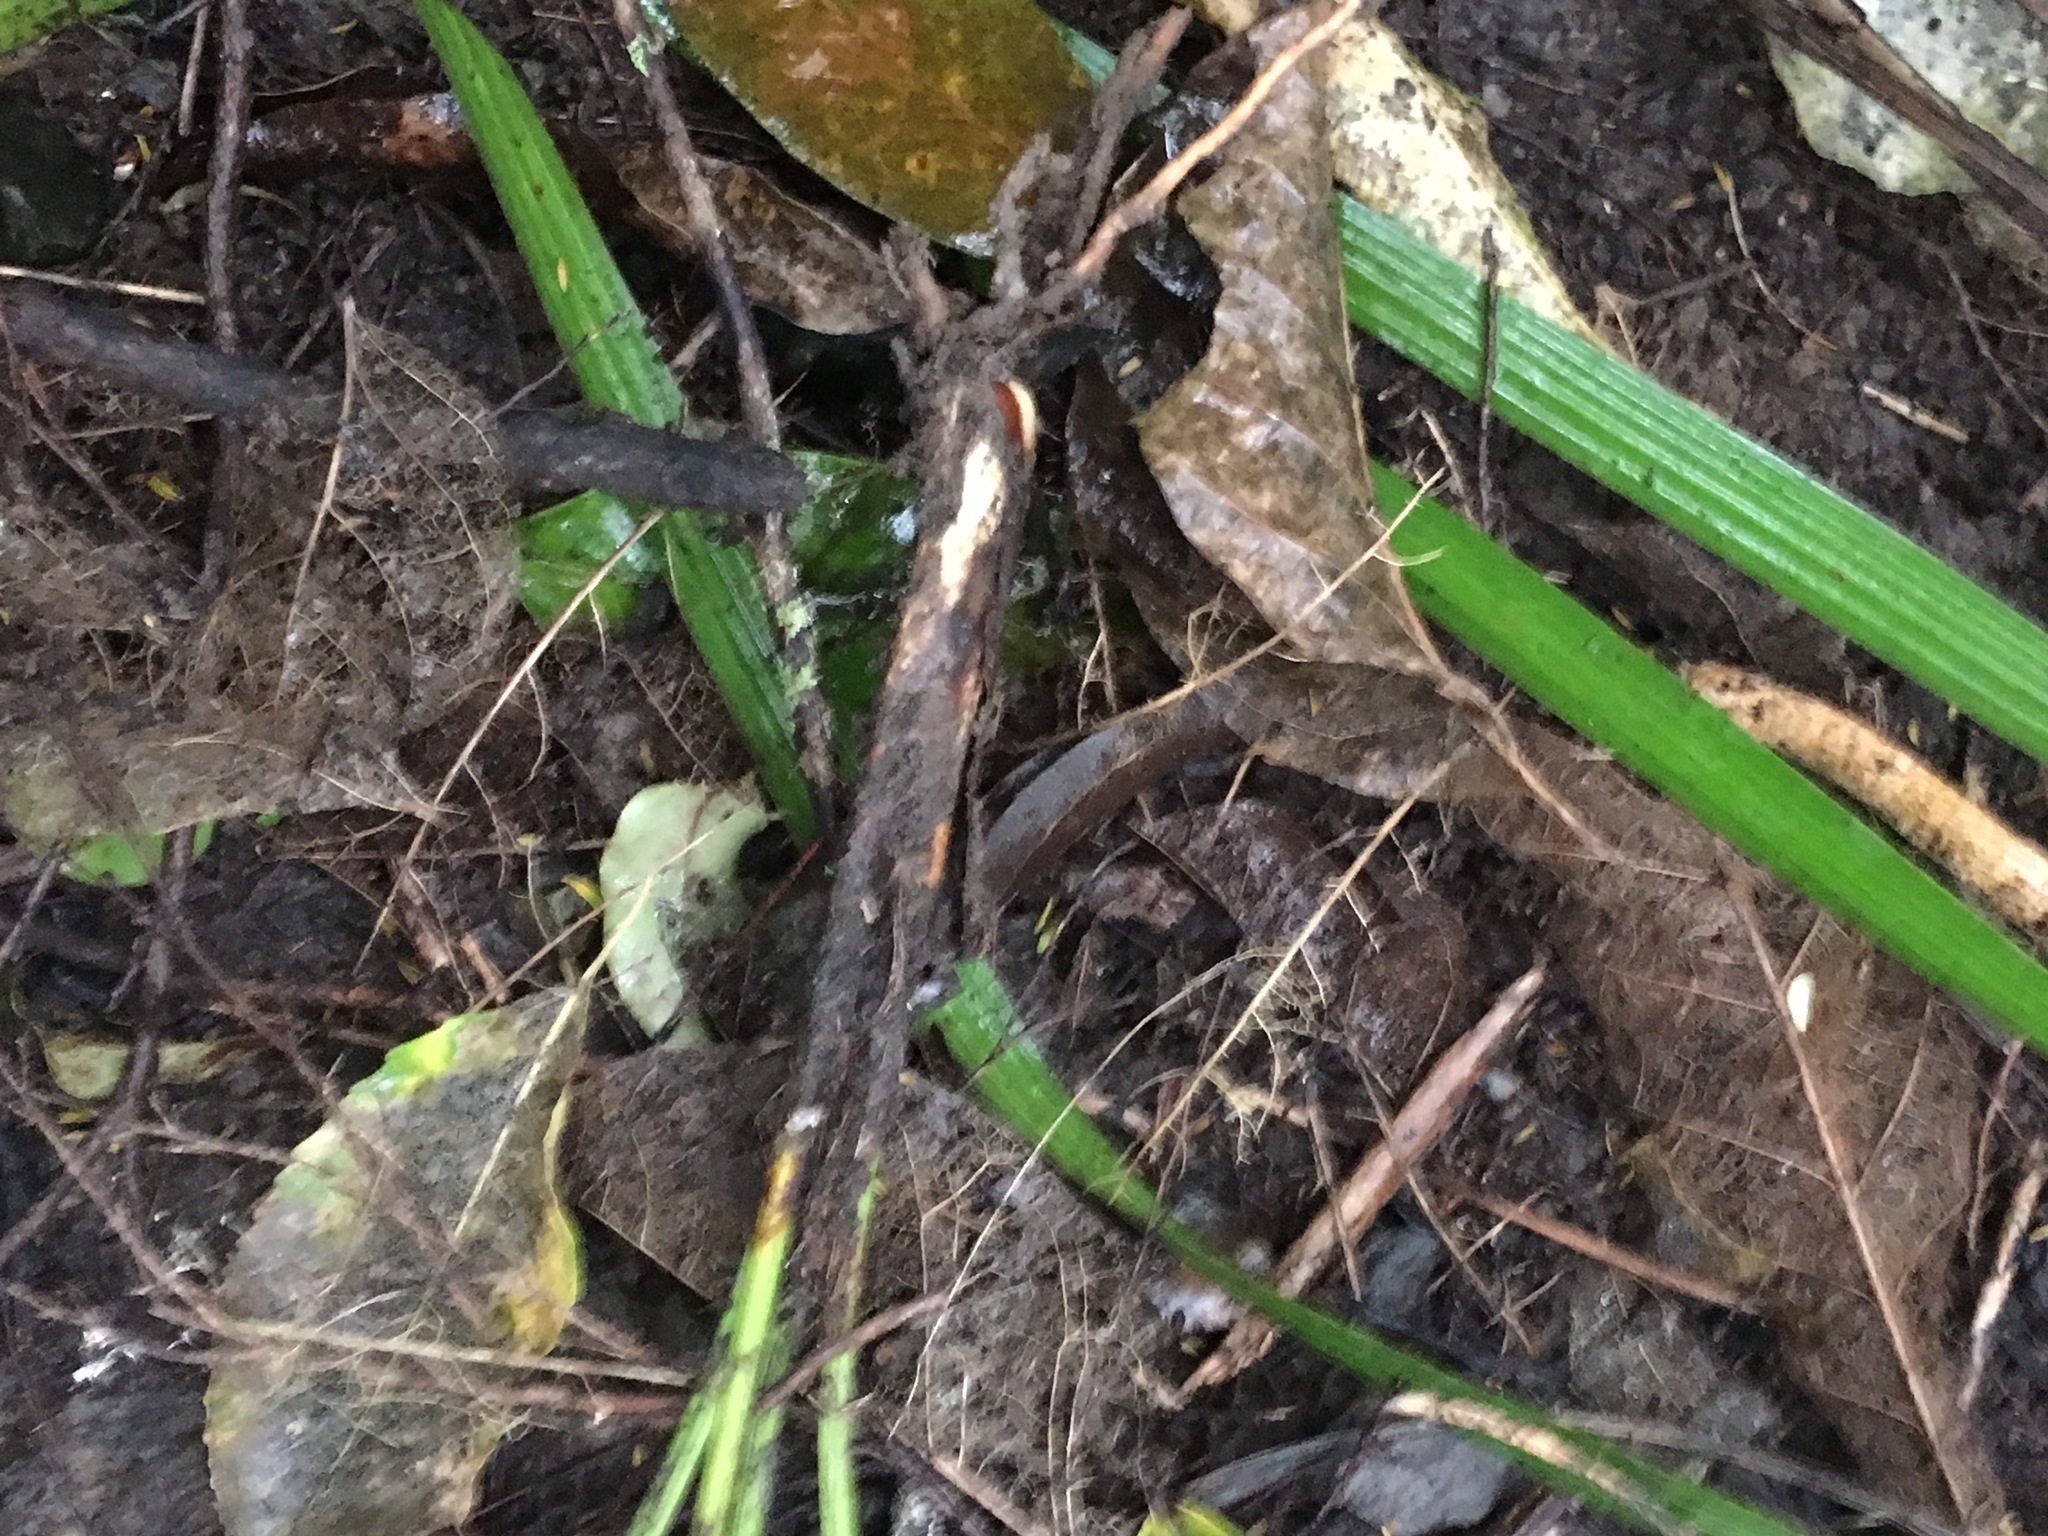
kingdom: Plantae
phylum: Tracheophyta
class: Liliopsida
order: Arecales
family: Arecaceae
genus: Phoenix
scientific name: Phoenix canariensis
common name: Canary island date palm
